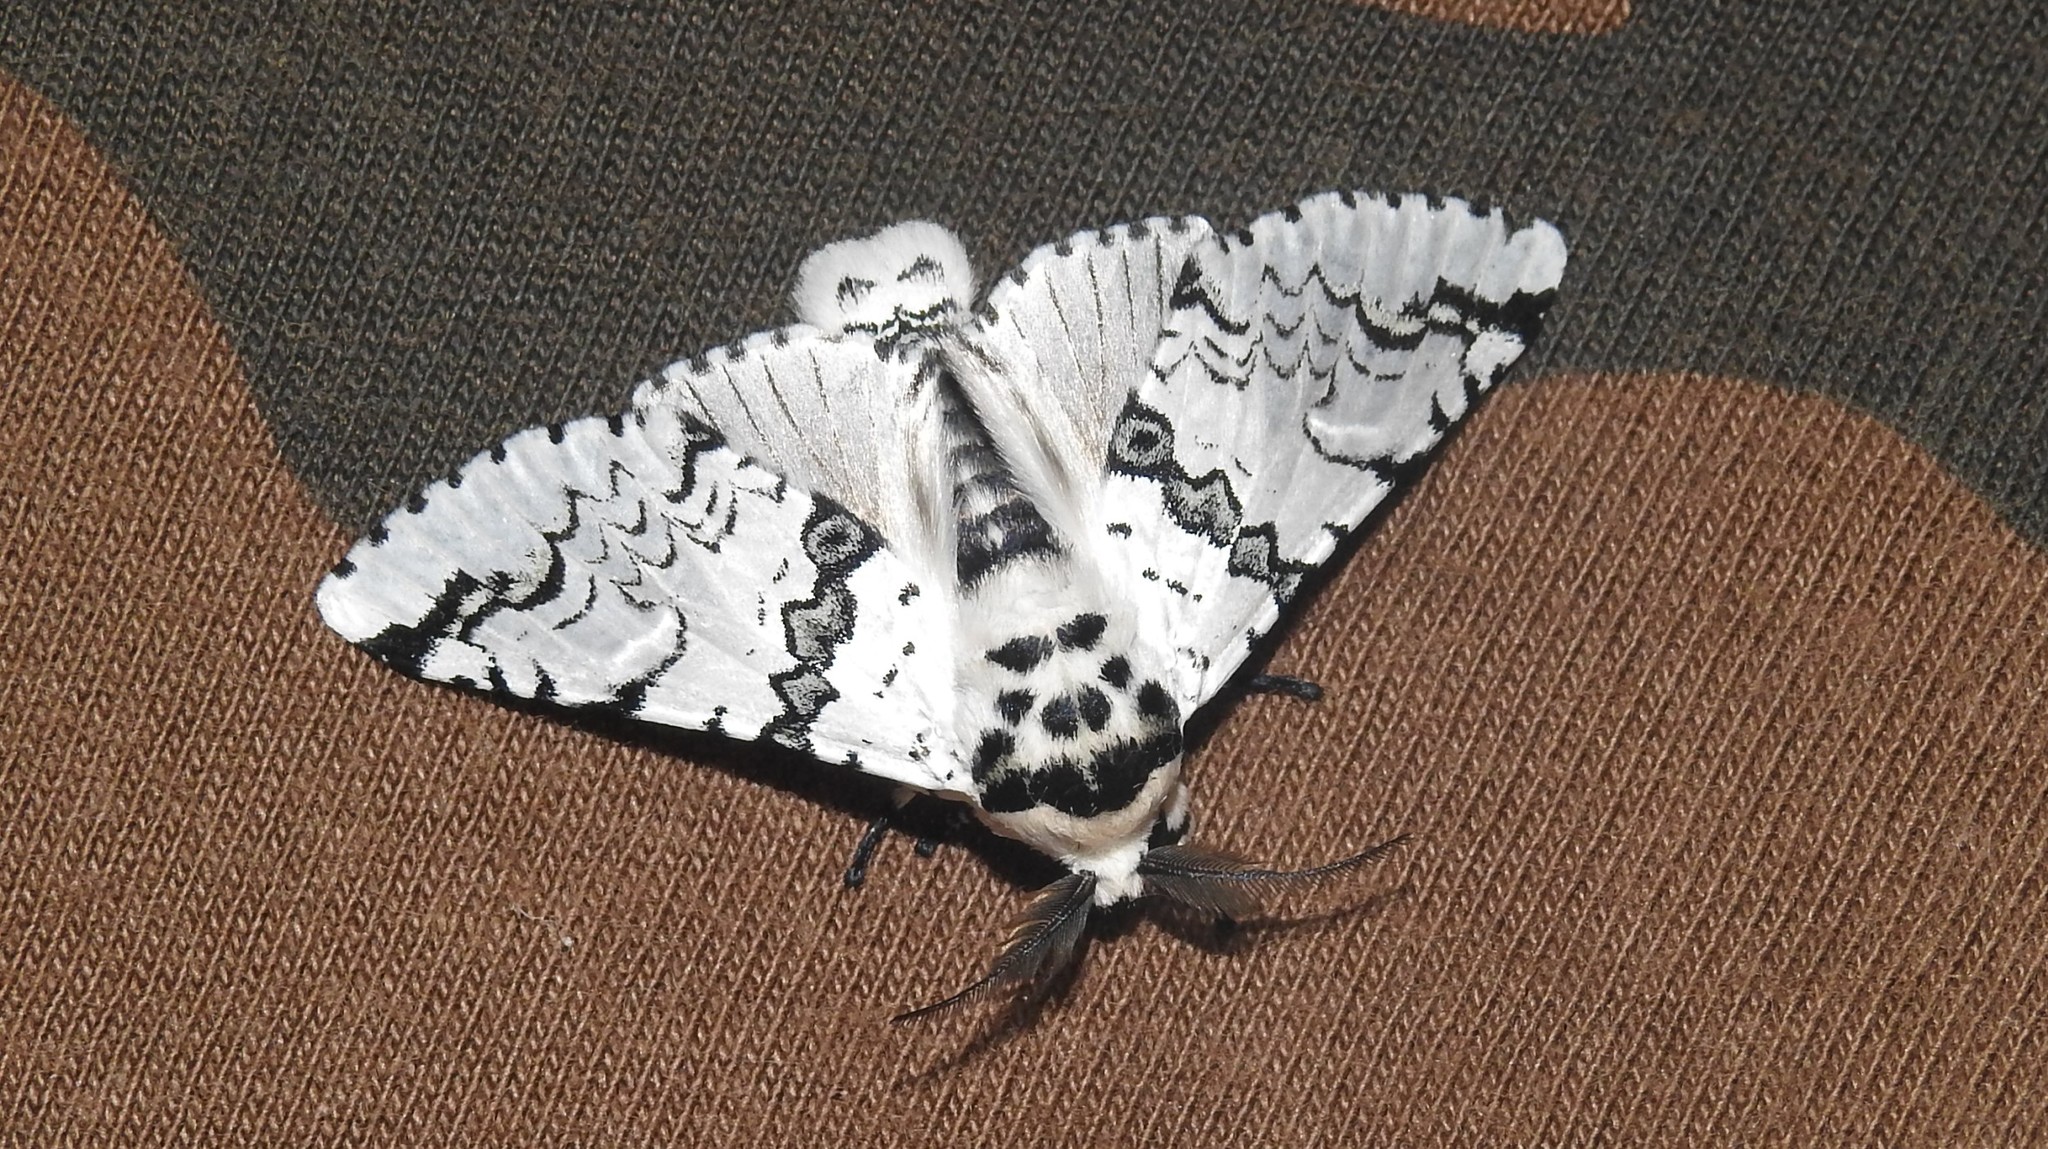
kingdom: Animalia
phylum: Arthropoda
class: Insecta
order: Lepidoptera
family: Notodontidae
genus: Neocerura
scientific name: Neocerura liturata
